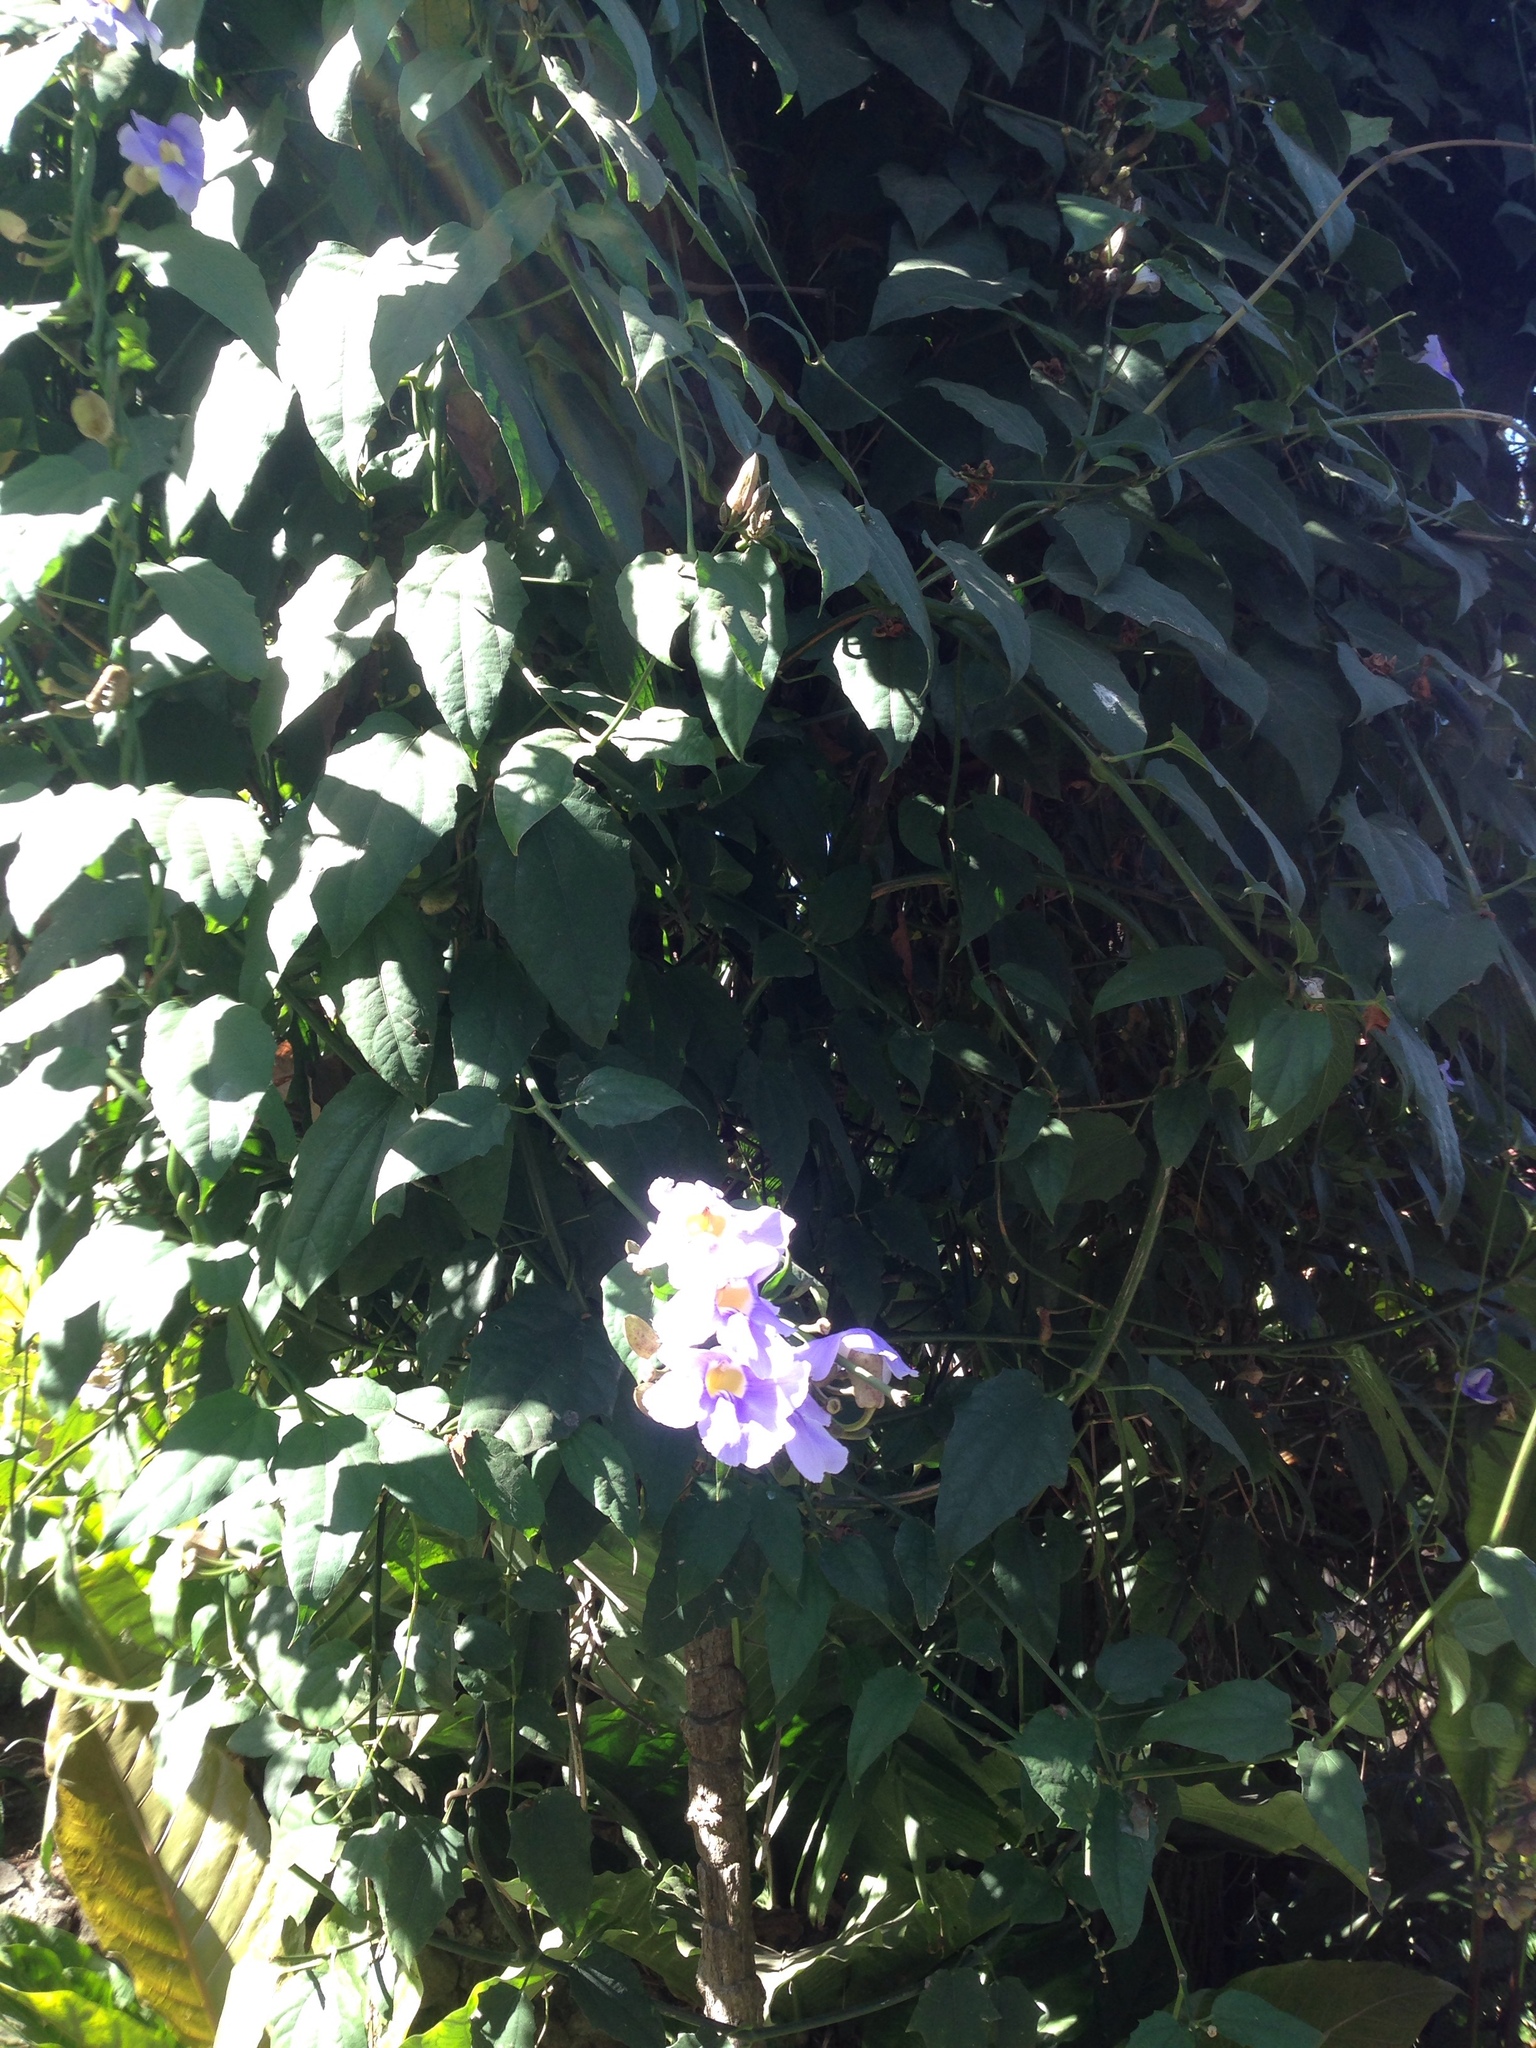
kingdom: Plantae
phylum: Tracheophyta
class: Magnoliopsida
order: Lamiales
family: Acanthaceae
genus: Thunbergia
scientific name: Thunbergia laurifolia
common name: Laurel-leaved thunbergia
